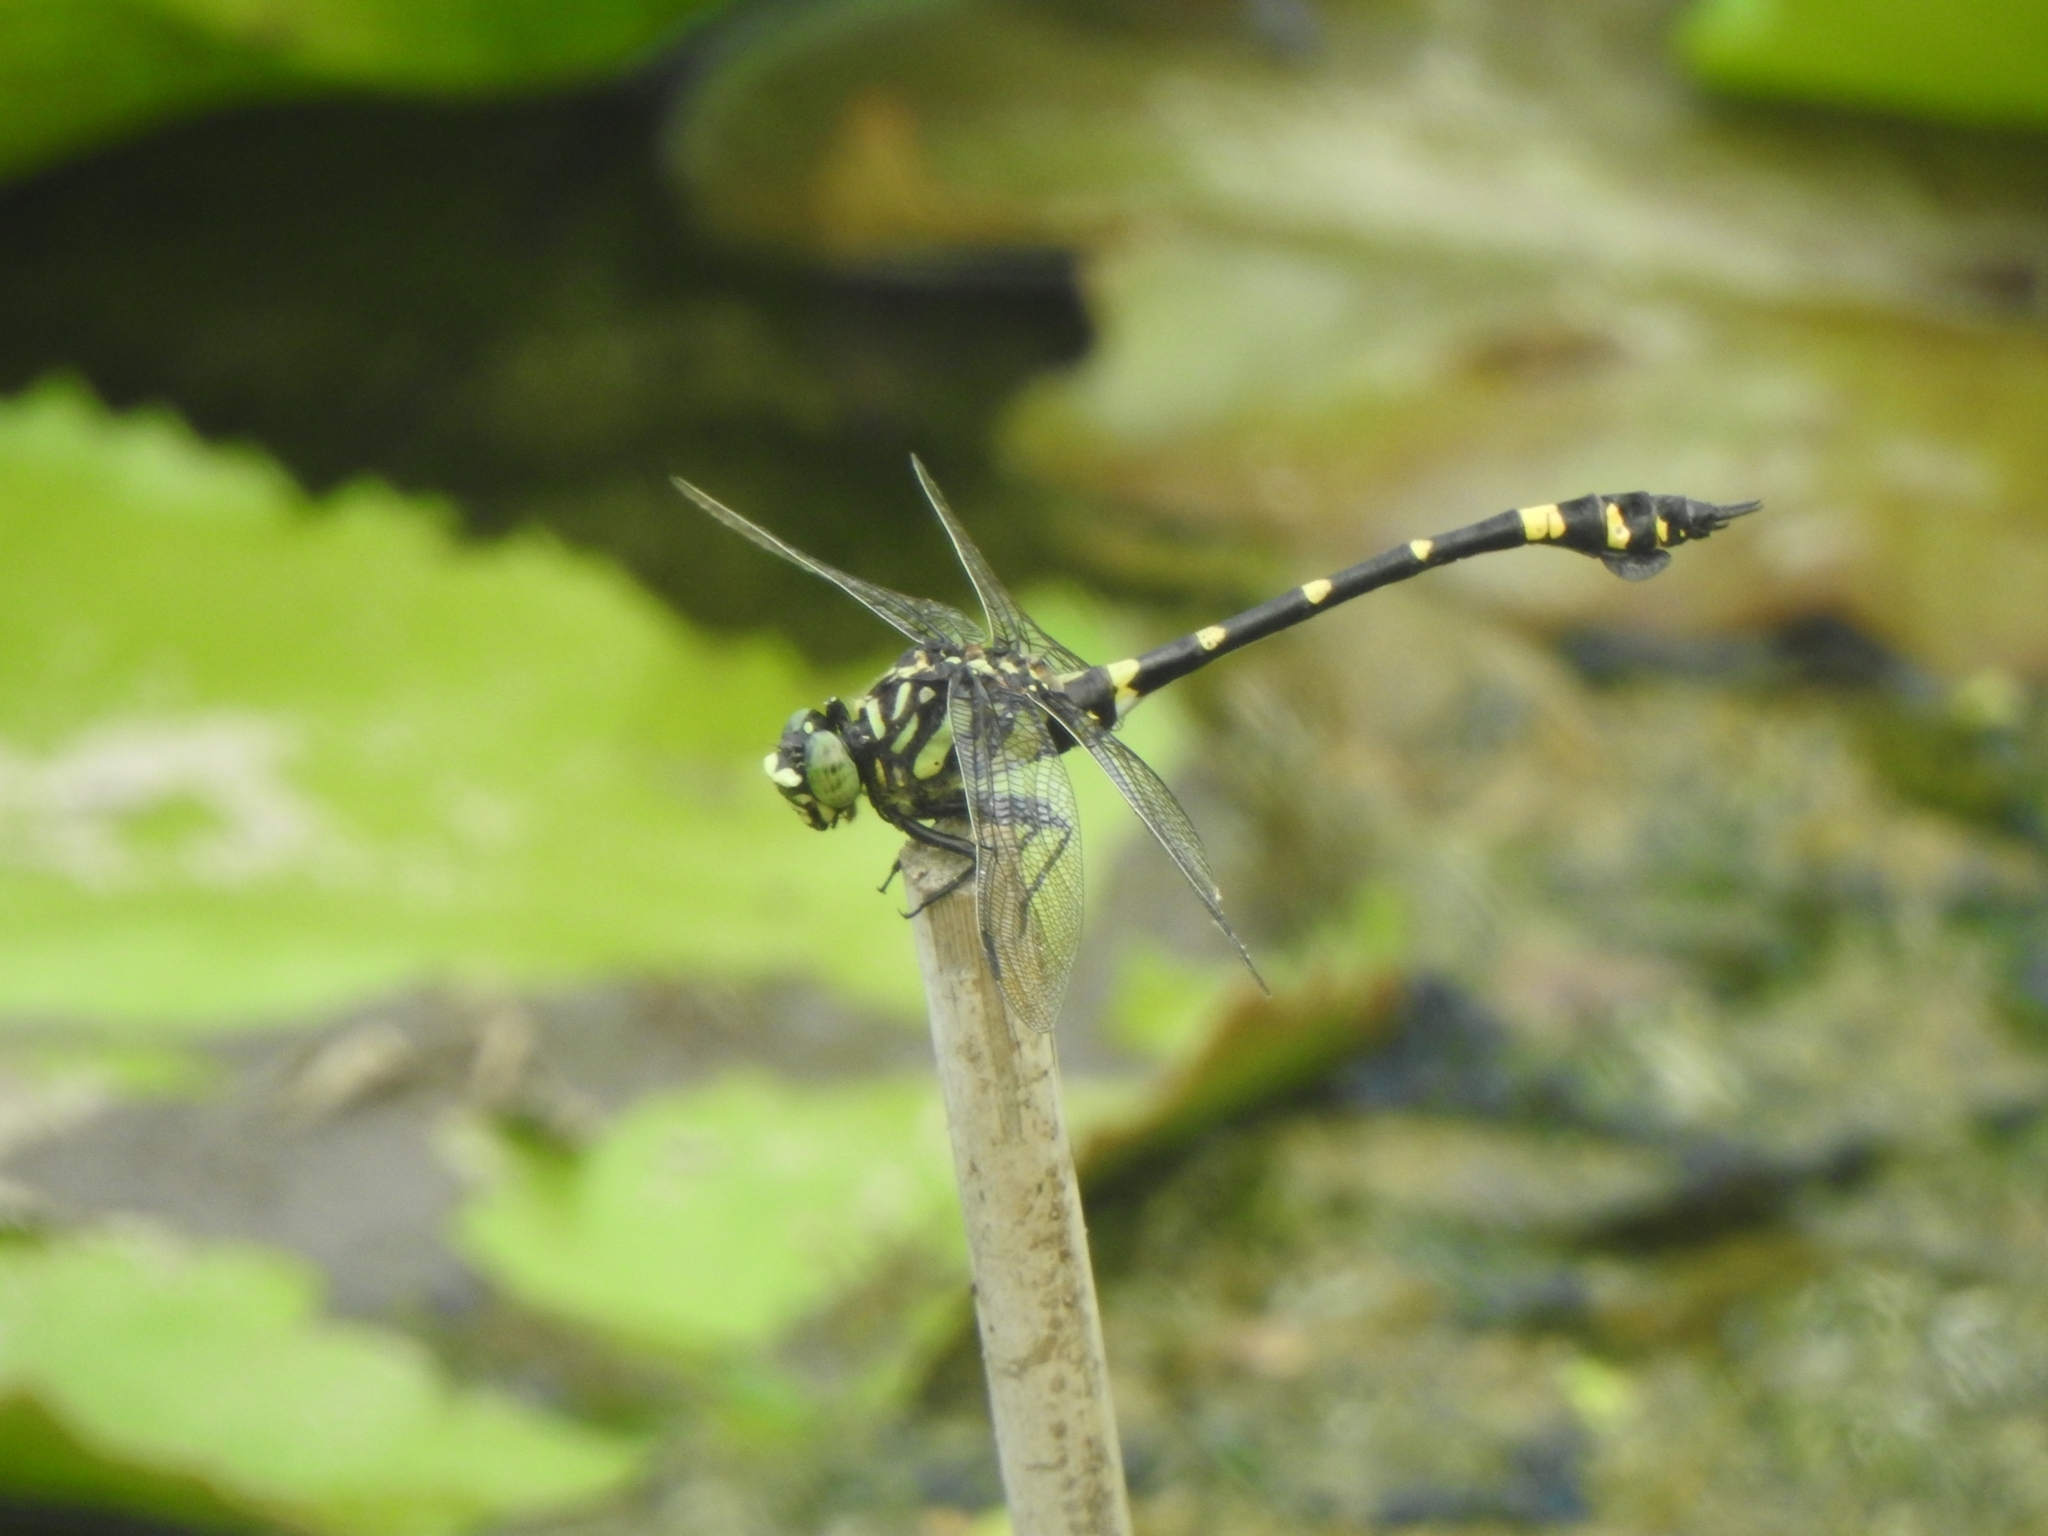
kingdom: Animalia
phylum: Arthropoda
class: Insecta
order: Odonata
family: Gomphidae
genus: Ictinogomphus
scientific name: Ictinogomphus rapax
